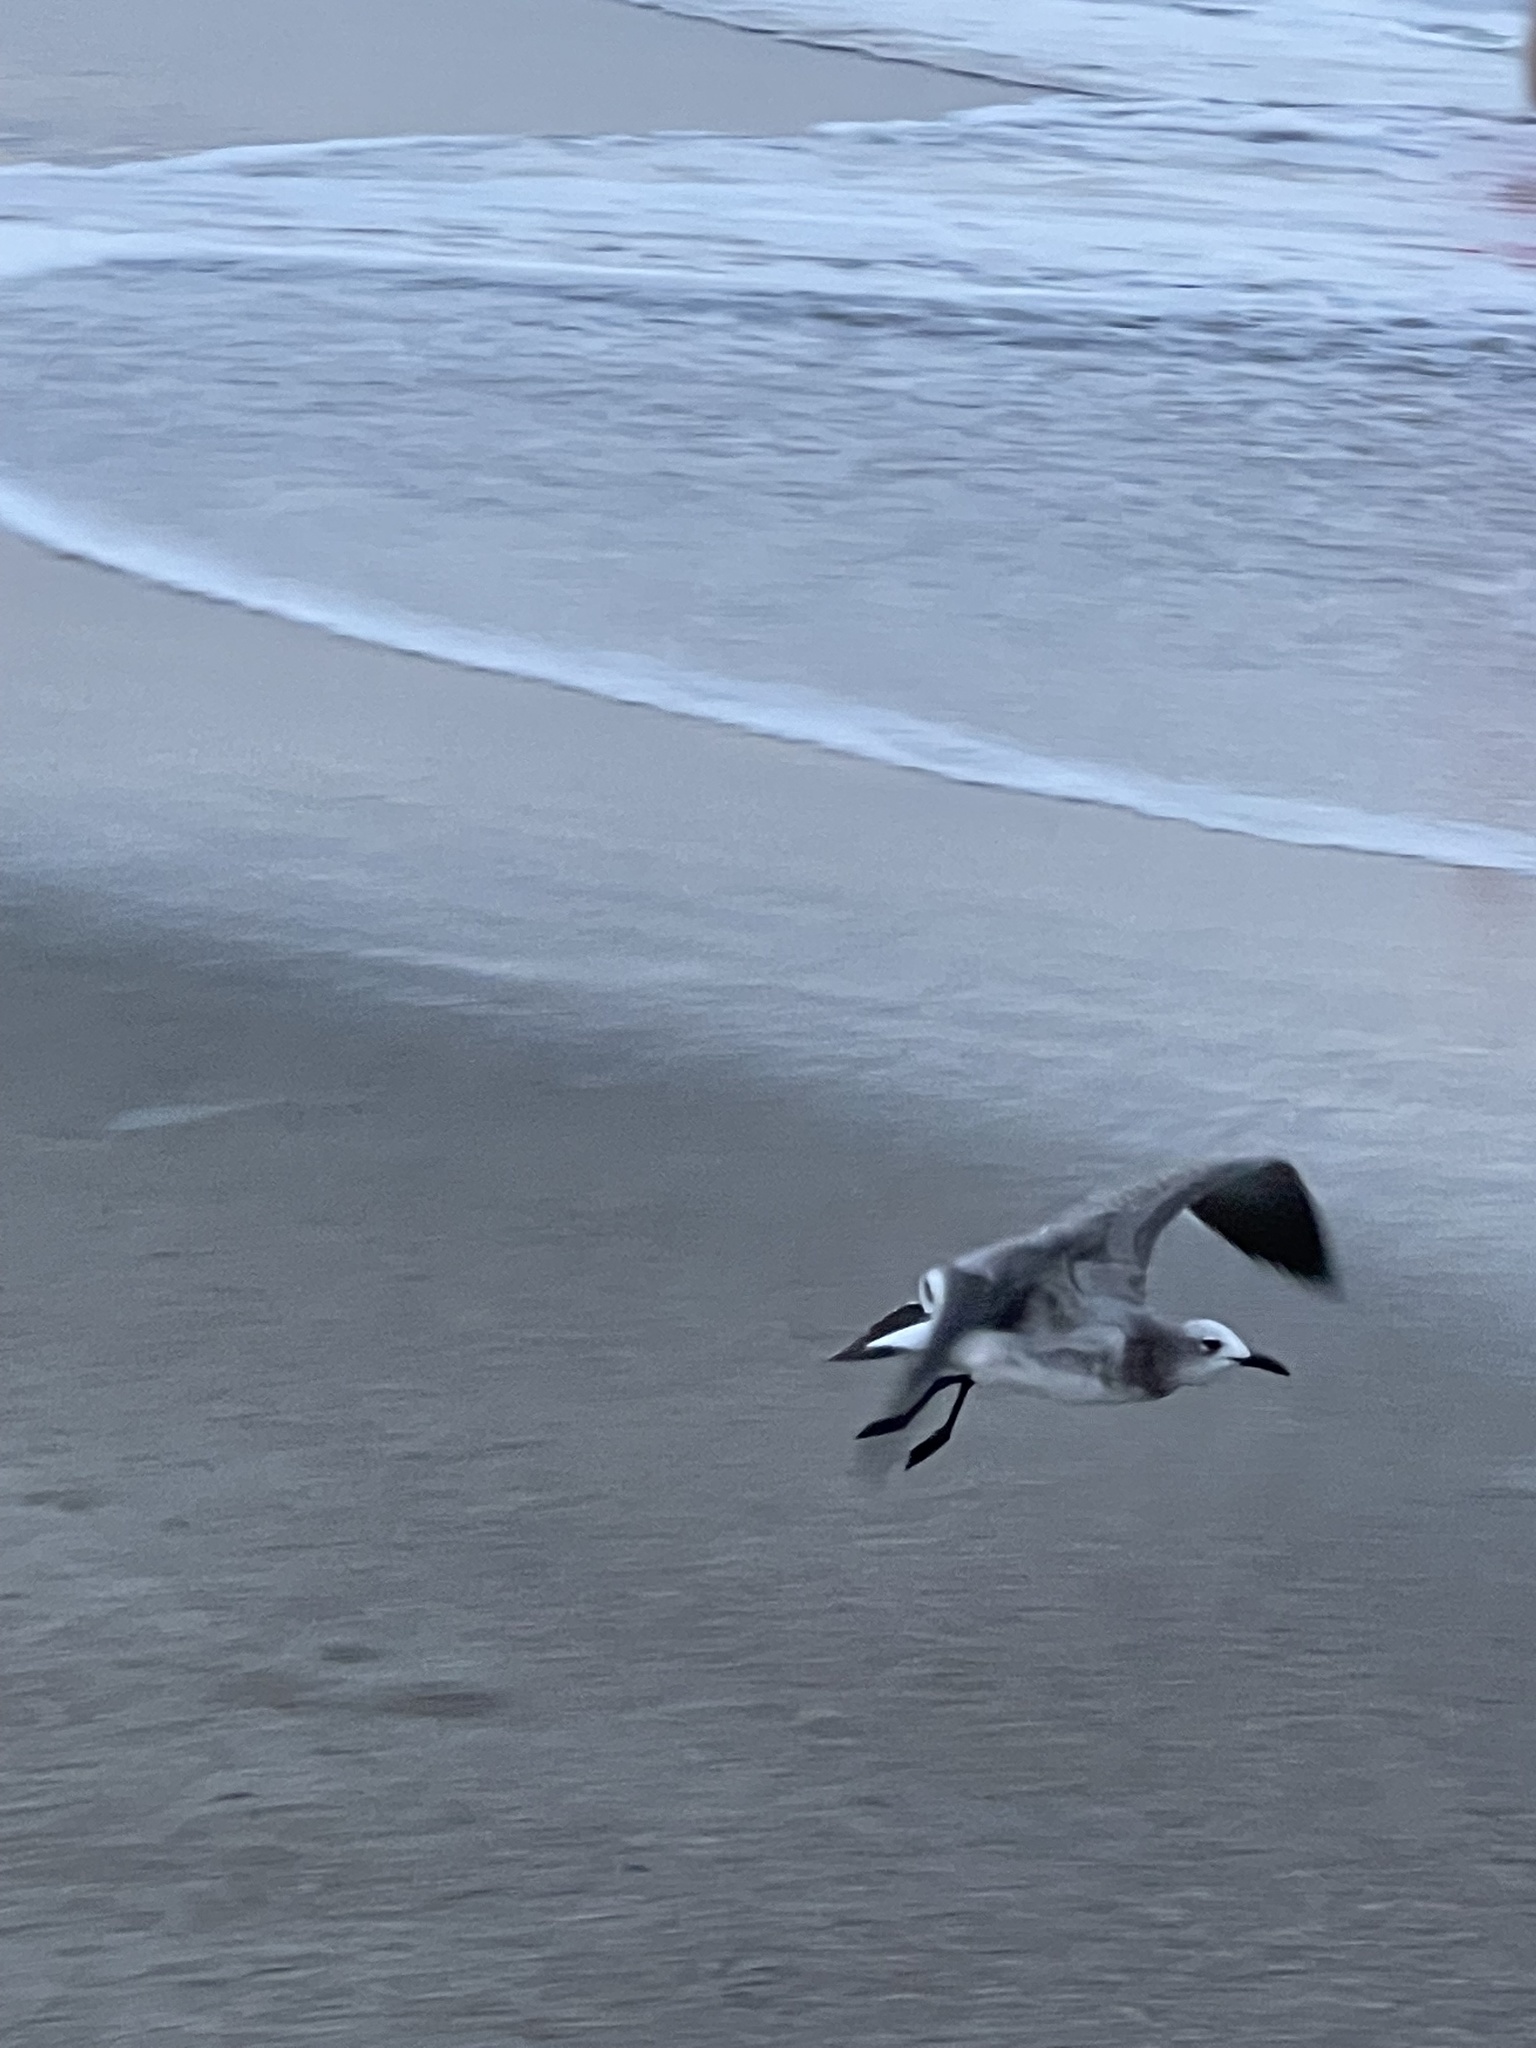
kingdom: Animalia
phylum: Chordata
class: Aves
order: Charadriiformes
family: Laridae
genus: Leucophaeus
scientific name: Leucophaeus atricilla
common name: Laughing gull
